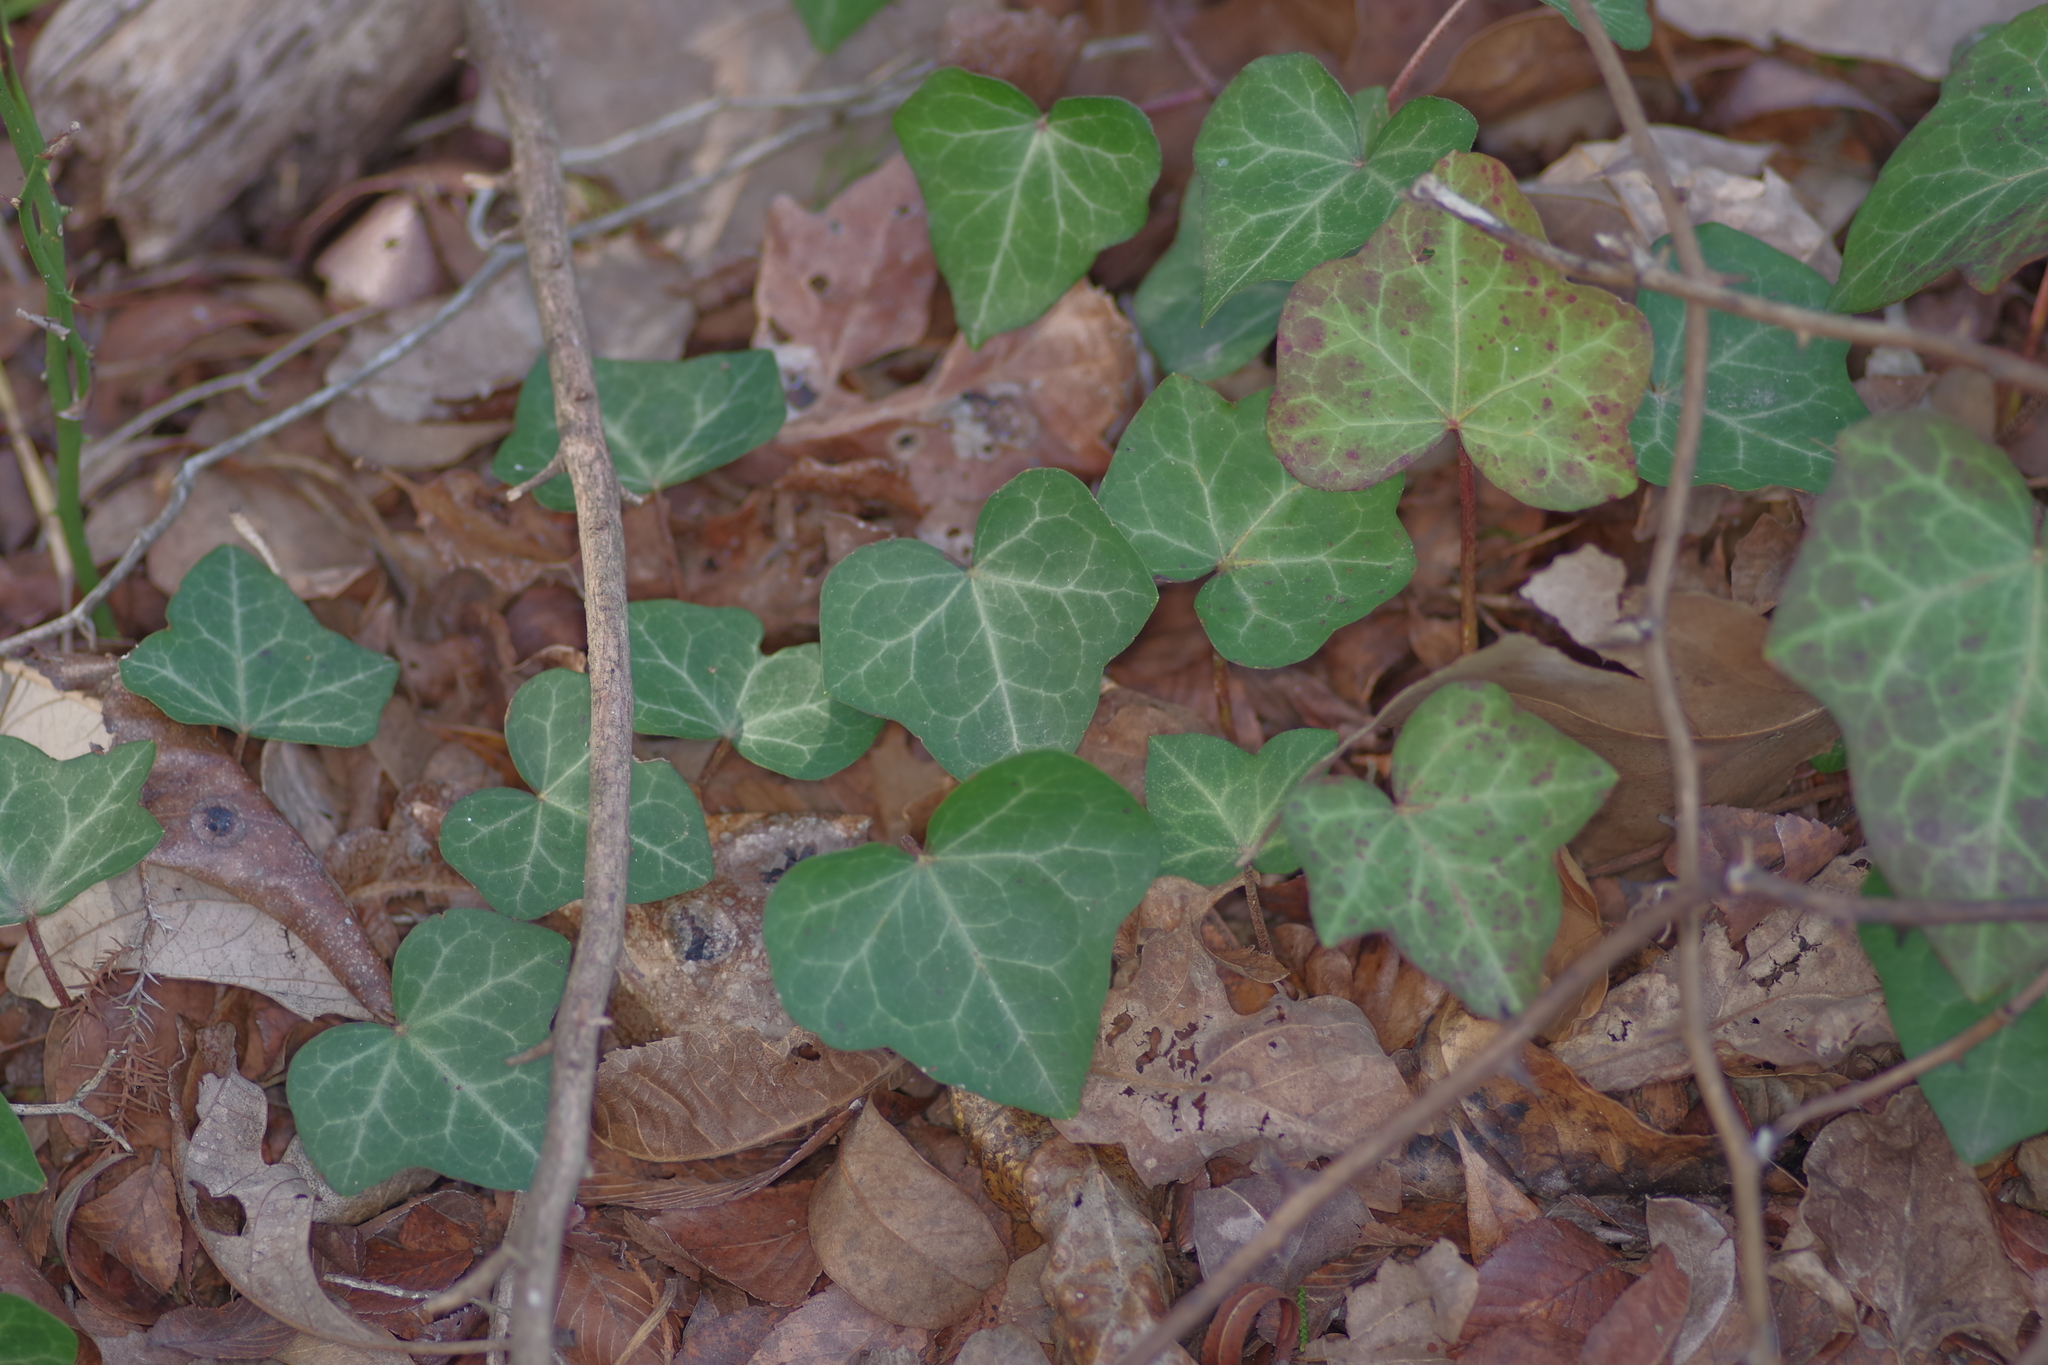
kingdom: Plantae
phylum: Tracheophyta
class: Magnoliopsida
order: Apiales
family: Araliaceae
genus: Hedera
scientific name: Hedera helix
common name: Ivy
